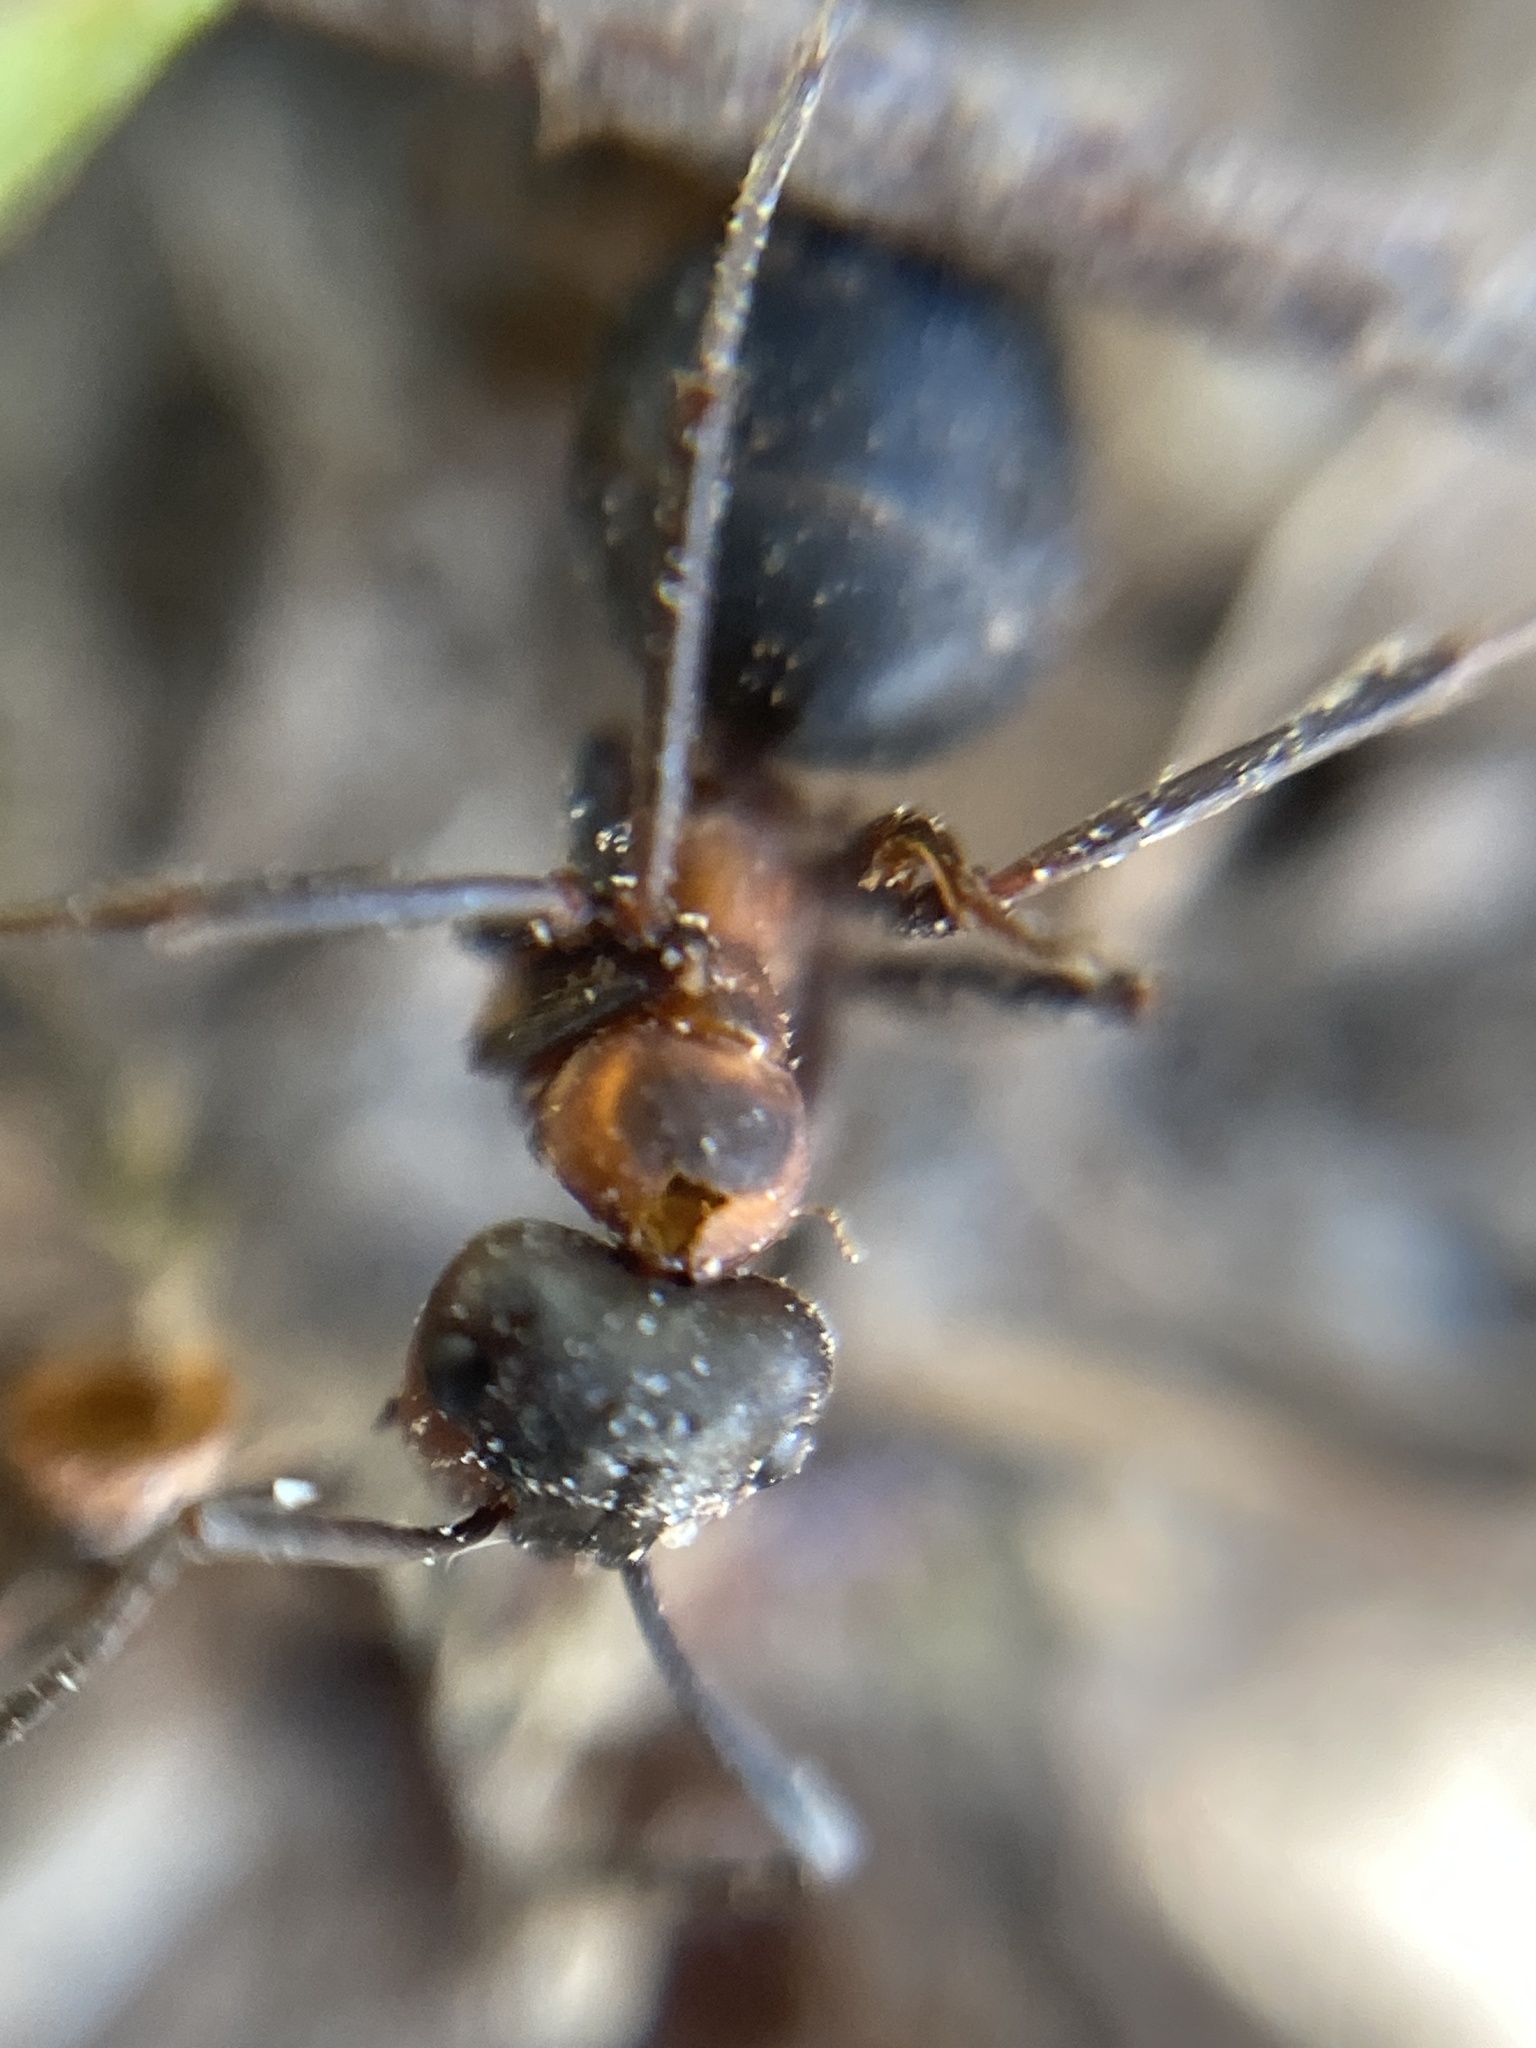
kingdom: Animalia
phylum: Arthropoda
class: Insecta
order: Hymenoptera
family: Formicidae
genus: Formica
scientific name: Formica rufa
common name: Red wood ant
